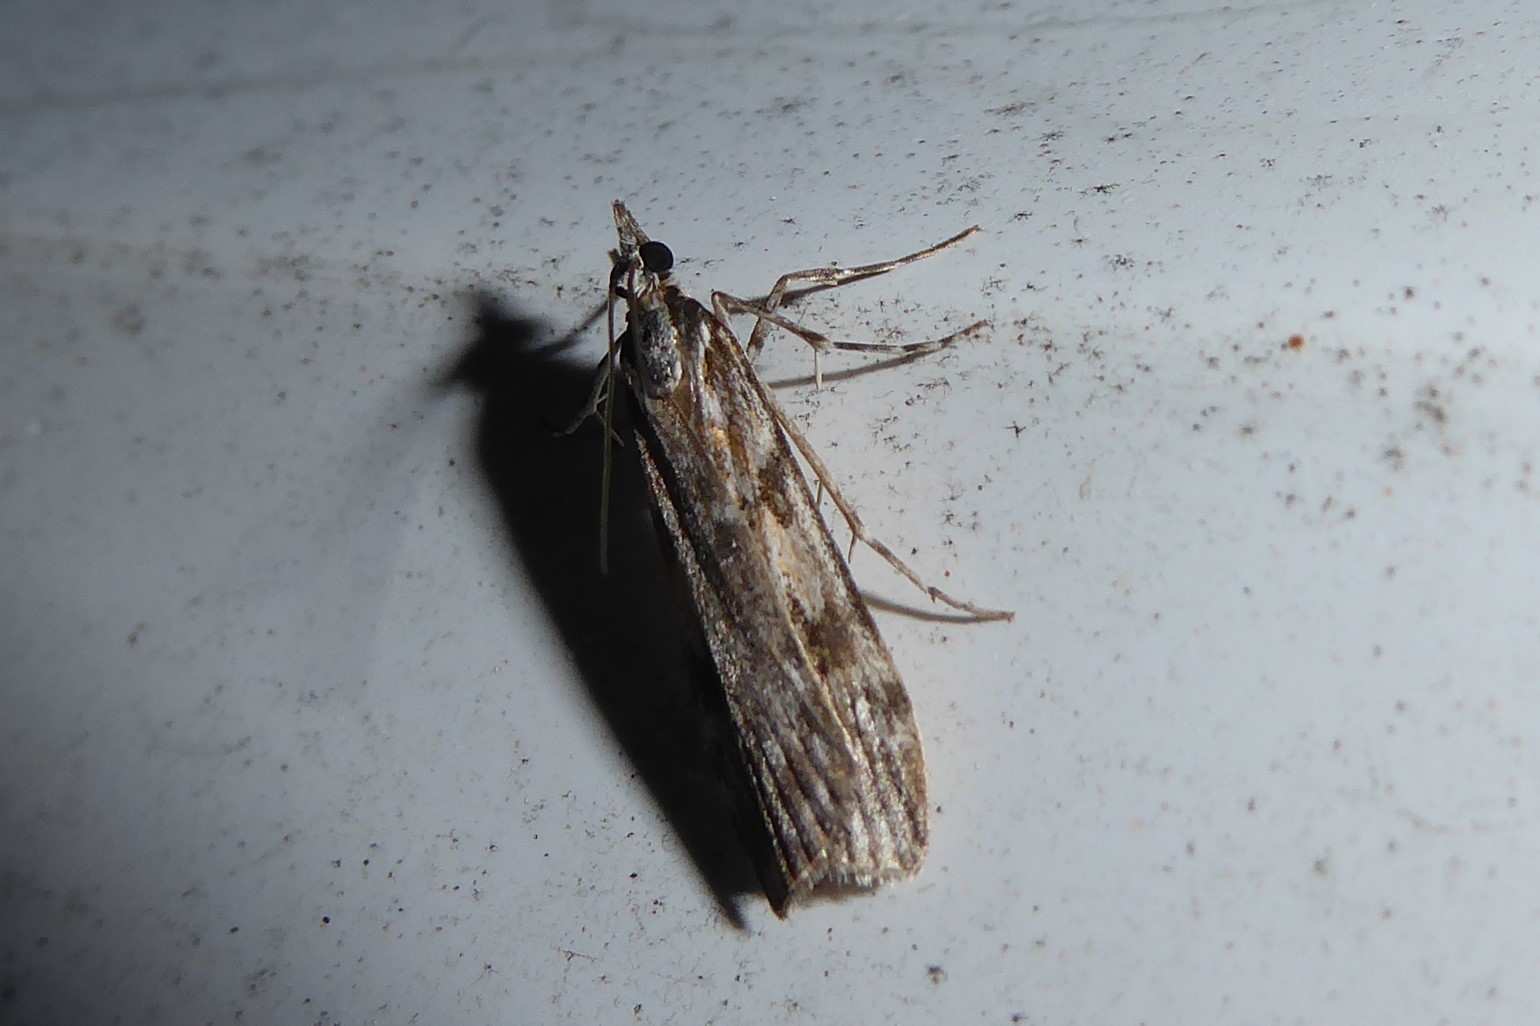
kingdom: Animalia
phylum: Arthropoda
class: Insecta
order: Lepidoptera
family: Crambidae
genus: Scoparia
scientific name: Scoparia halopis
